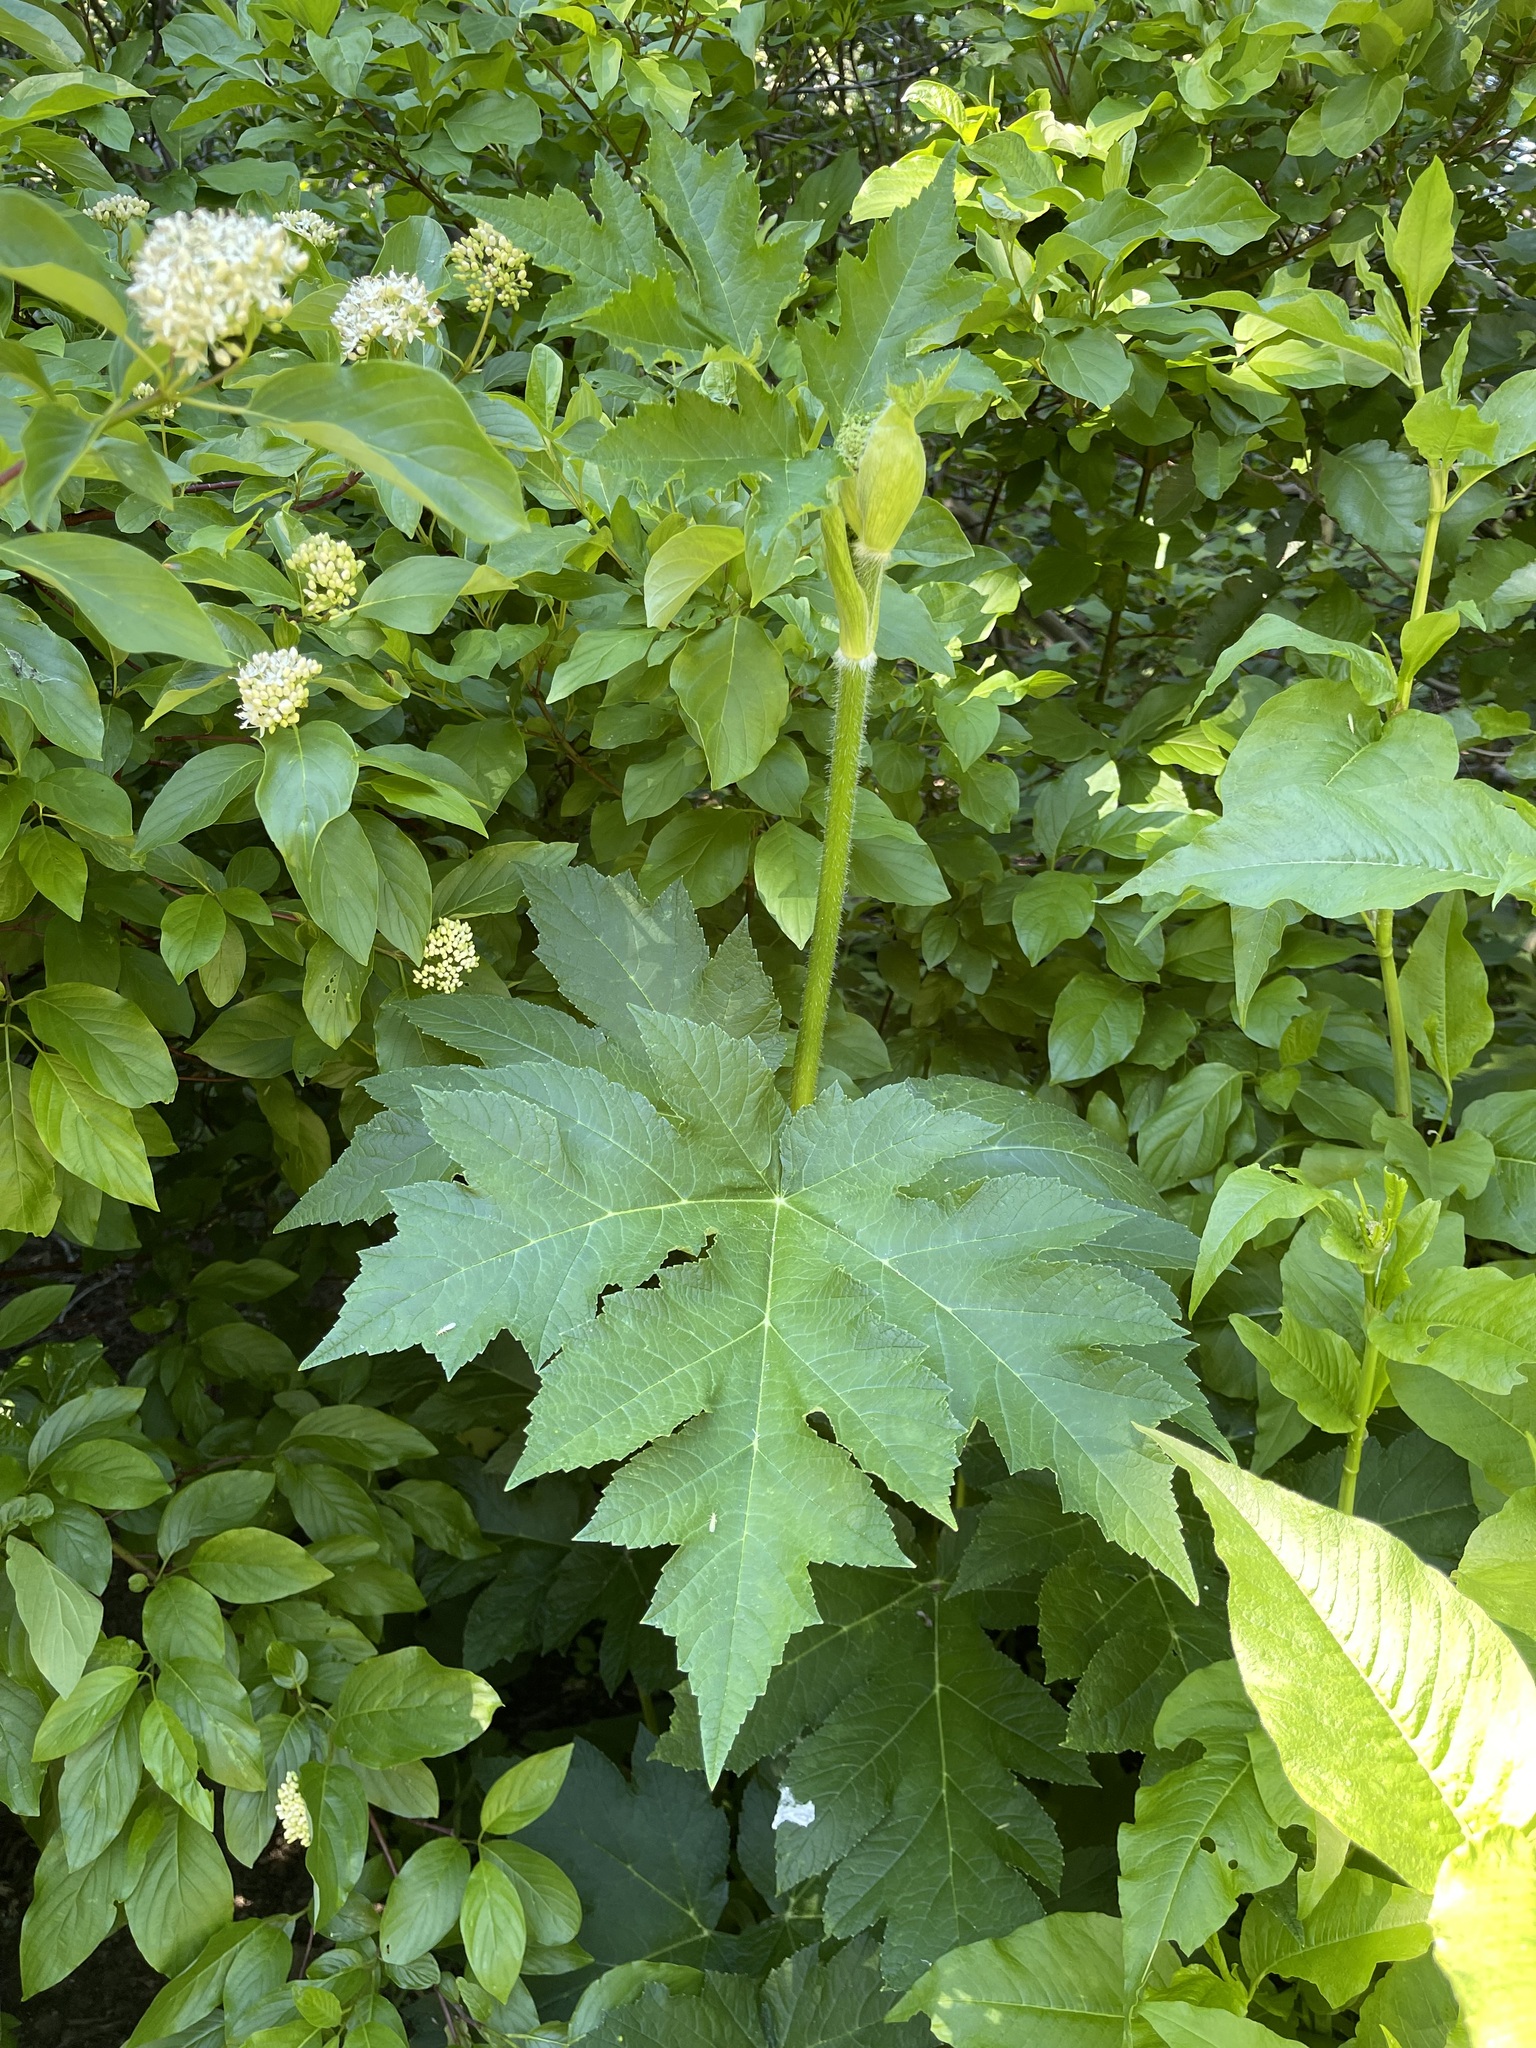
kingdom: Plantae
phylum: Tracheophyta
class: Magnoliopsida
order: Apiales
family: Apiaceae
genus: Heracleum
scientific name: Heracleum maximum
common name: American cow parsnip
